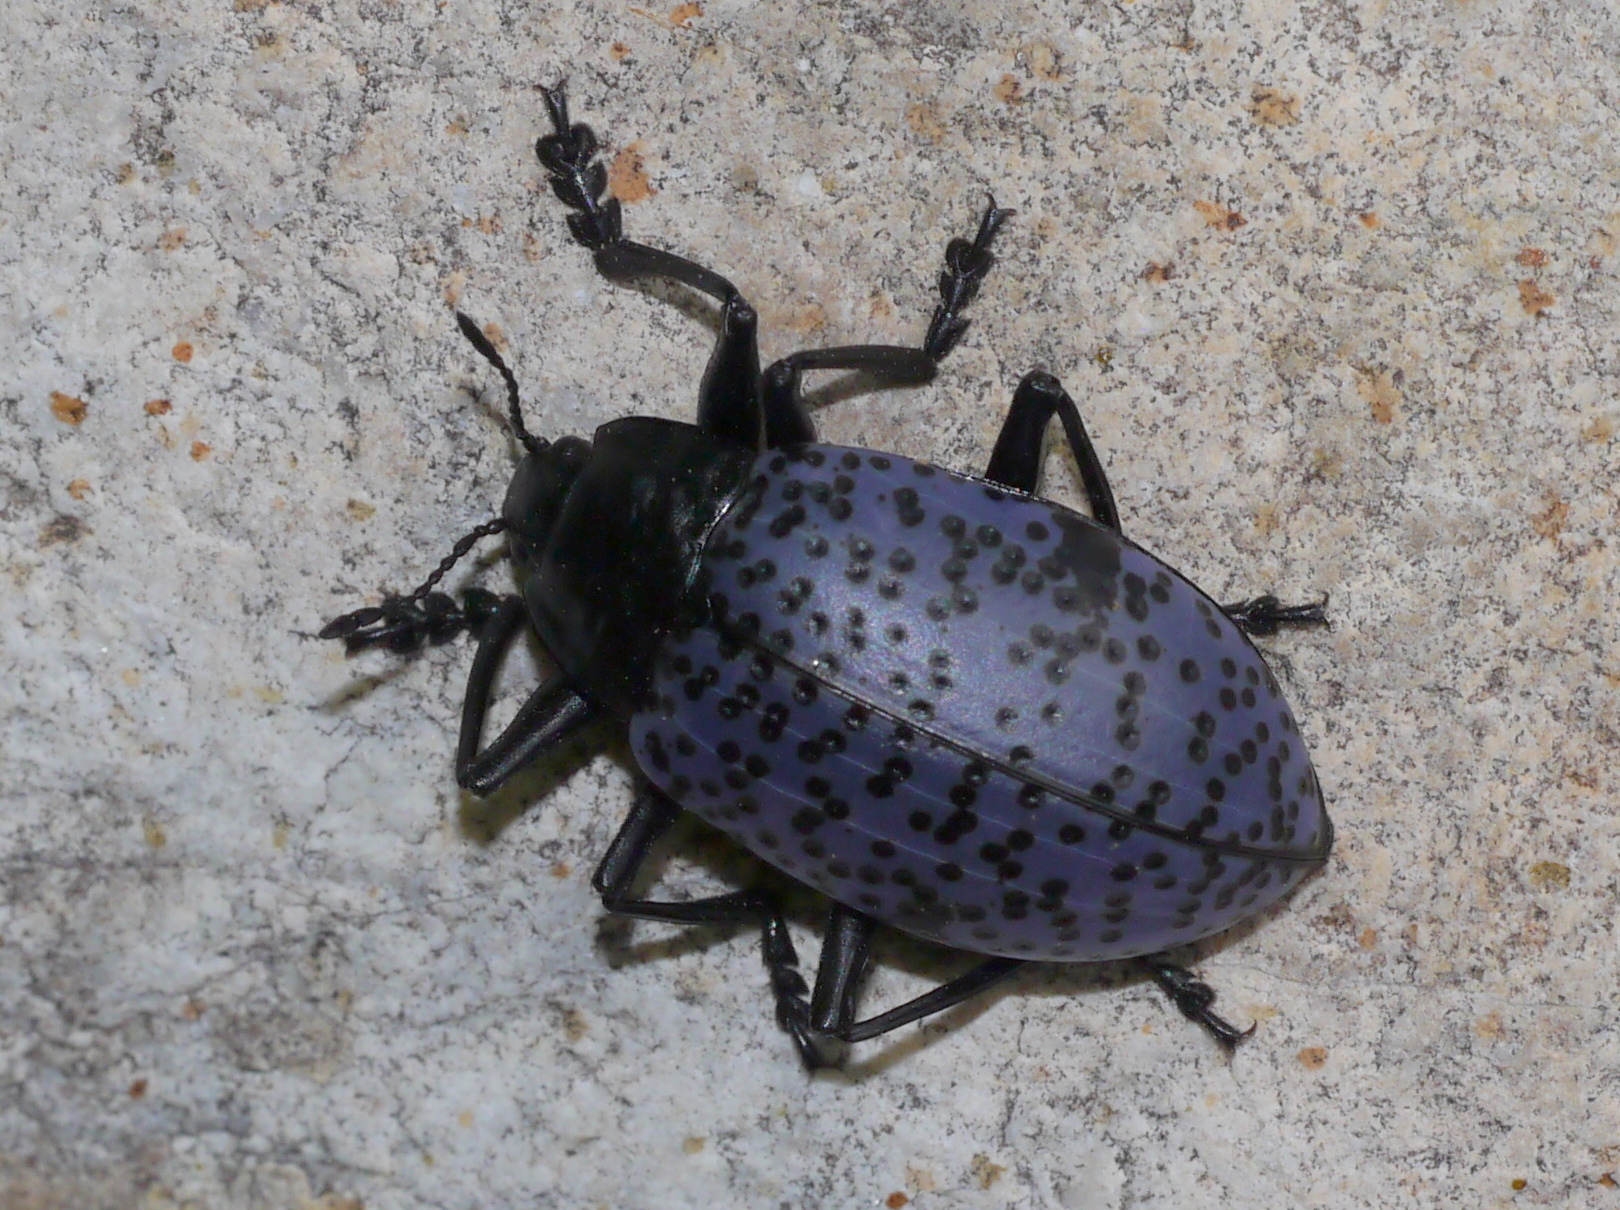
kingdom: Animalia
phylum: Arthropoda
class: Insecta
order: Coleoptera
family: Erotylidae
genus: Gibbifer
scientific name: Gibbifer californicus
